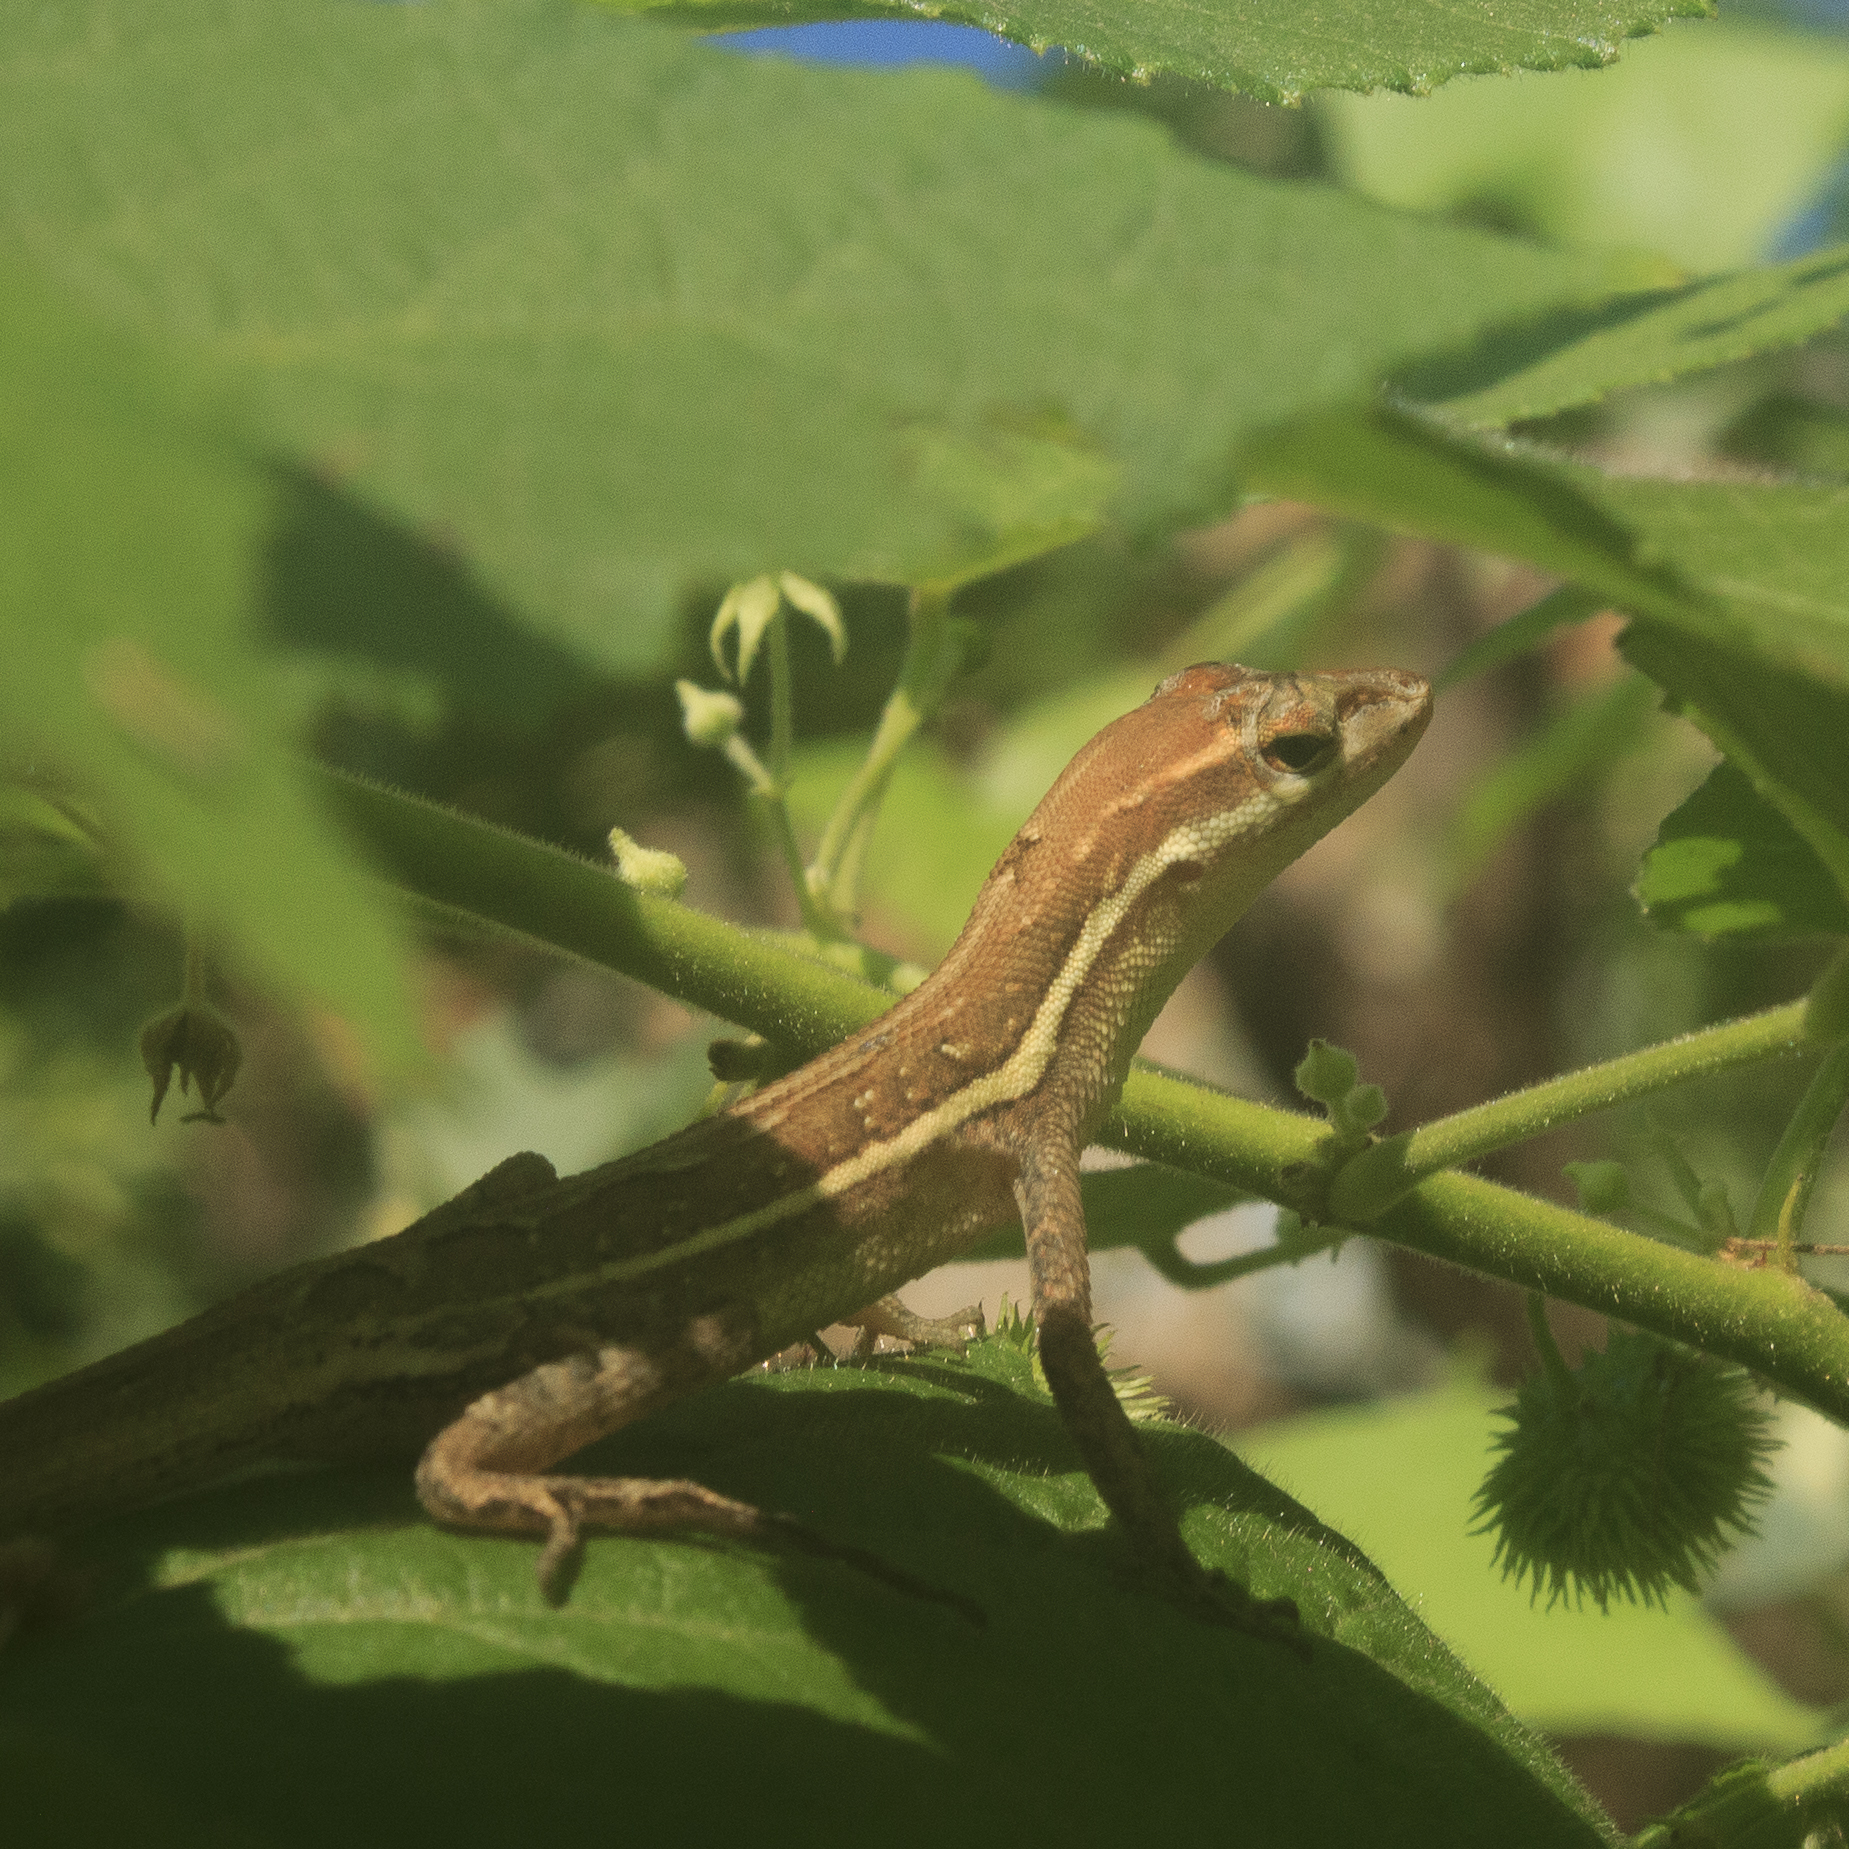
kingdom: Animalia
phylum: Chordata
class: Squamata
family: Dactyloidae
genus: Anolis
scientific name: Anolis auratus
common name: Grass anole
